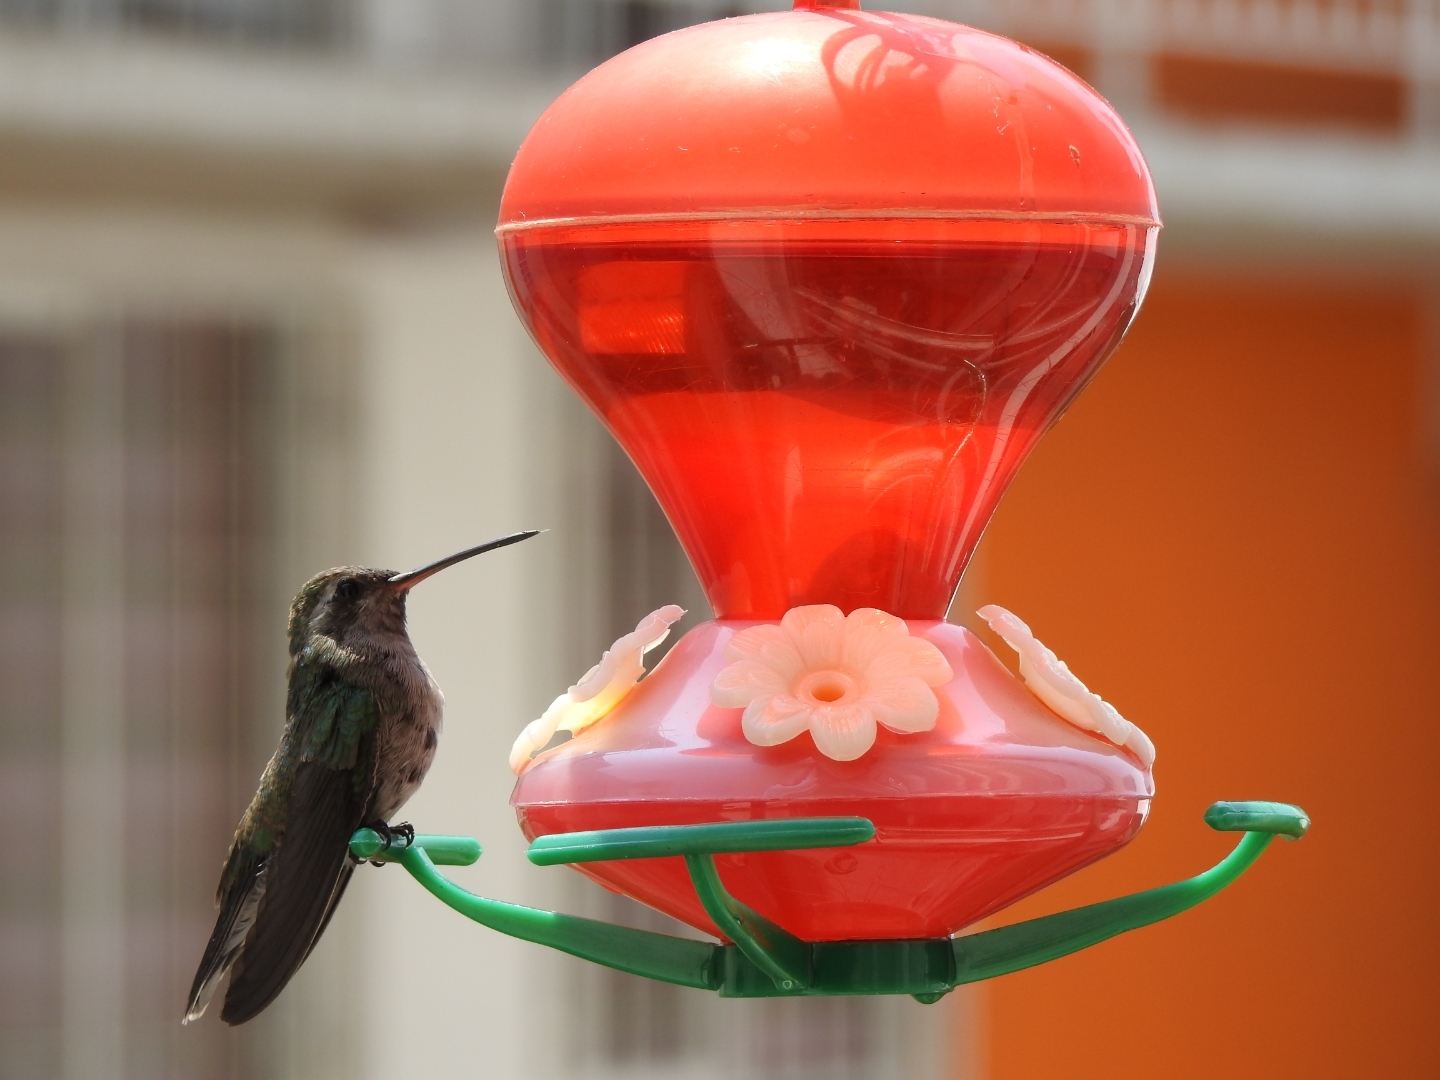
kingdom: Animalia
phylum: Chordata
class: Aves
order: Apodiformes
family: Trochilidae
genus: Cynanthus
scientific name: Cynanthus latirostris
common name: Broad-billed hummingbird
